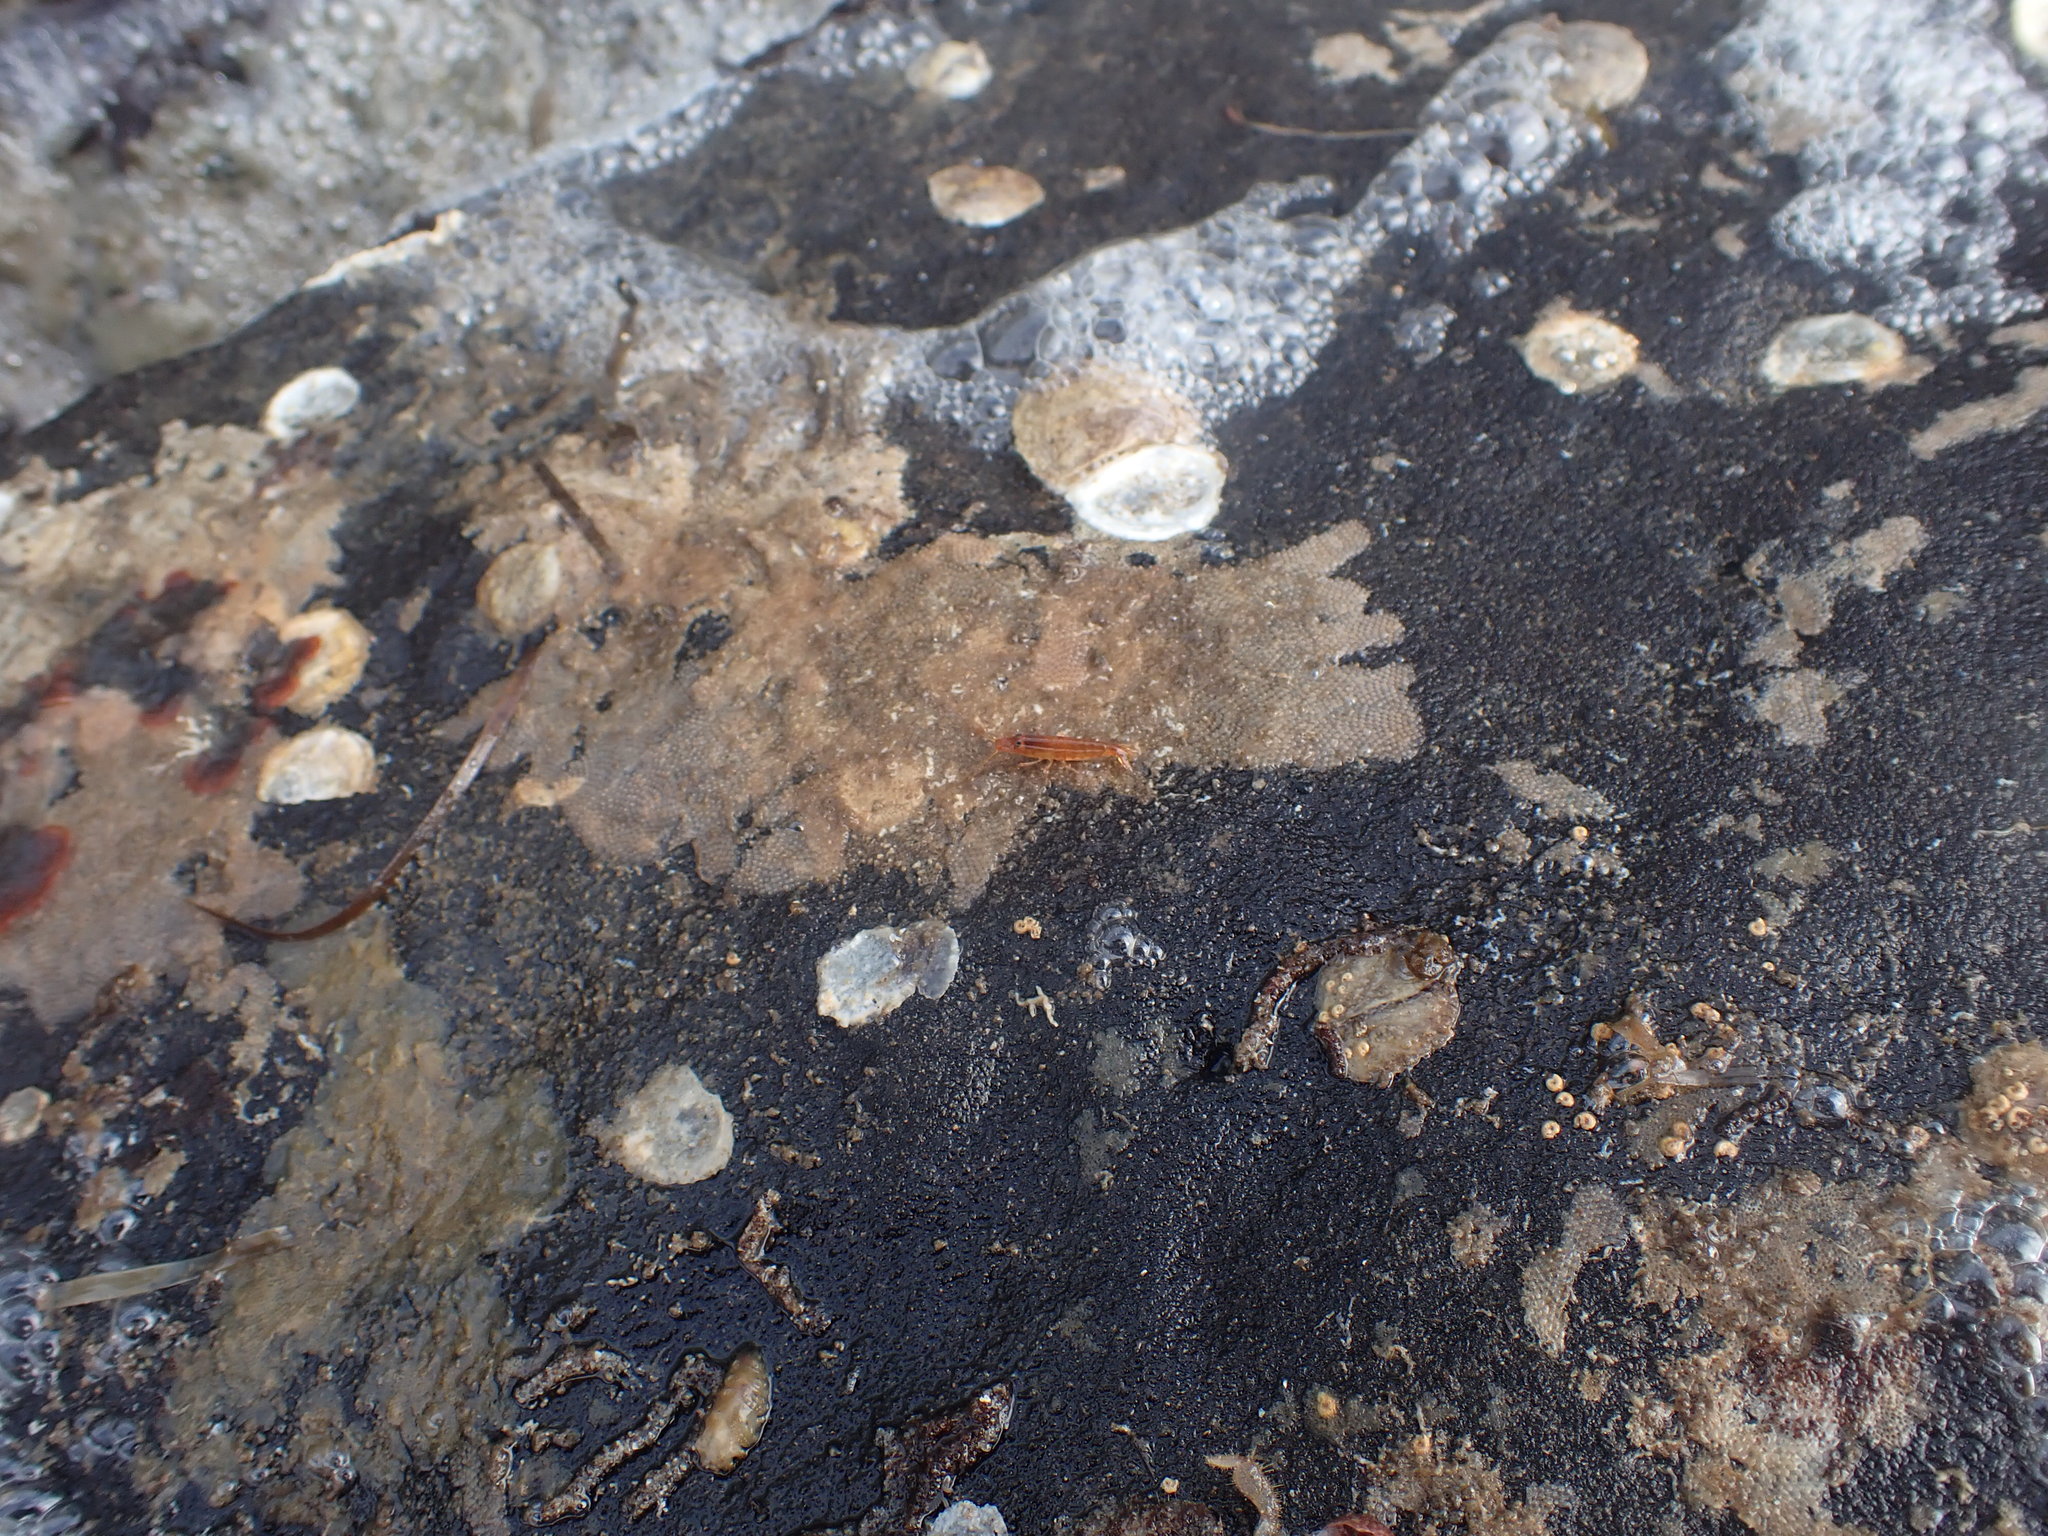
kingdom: Animalia
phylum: Arthropoda
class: Malacostraca
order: Decapoda
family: Alpheidae
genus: Betaeopsis
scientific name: Betaeopsis aequimanus
